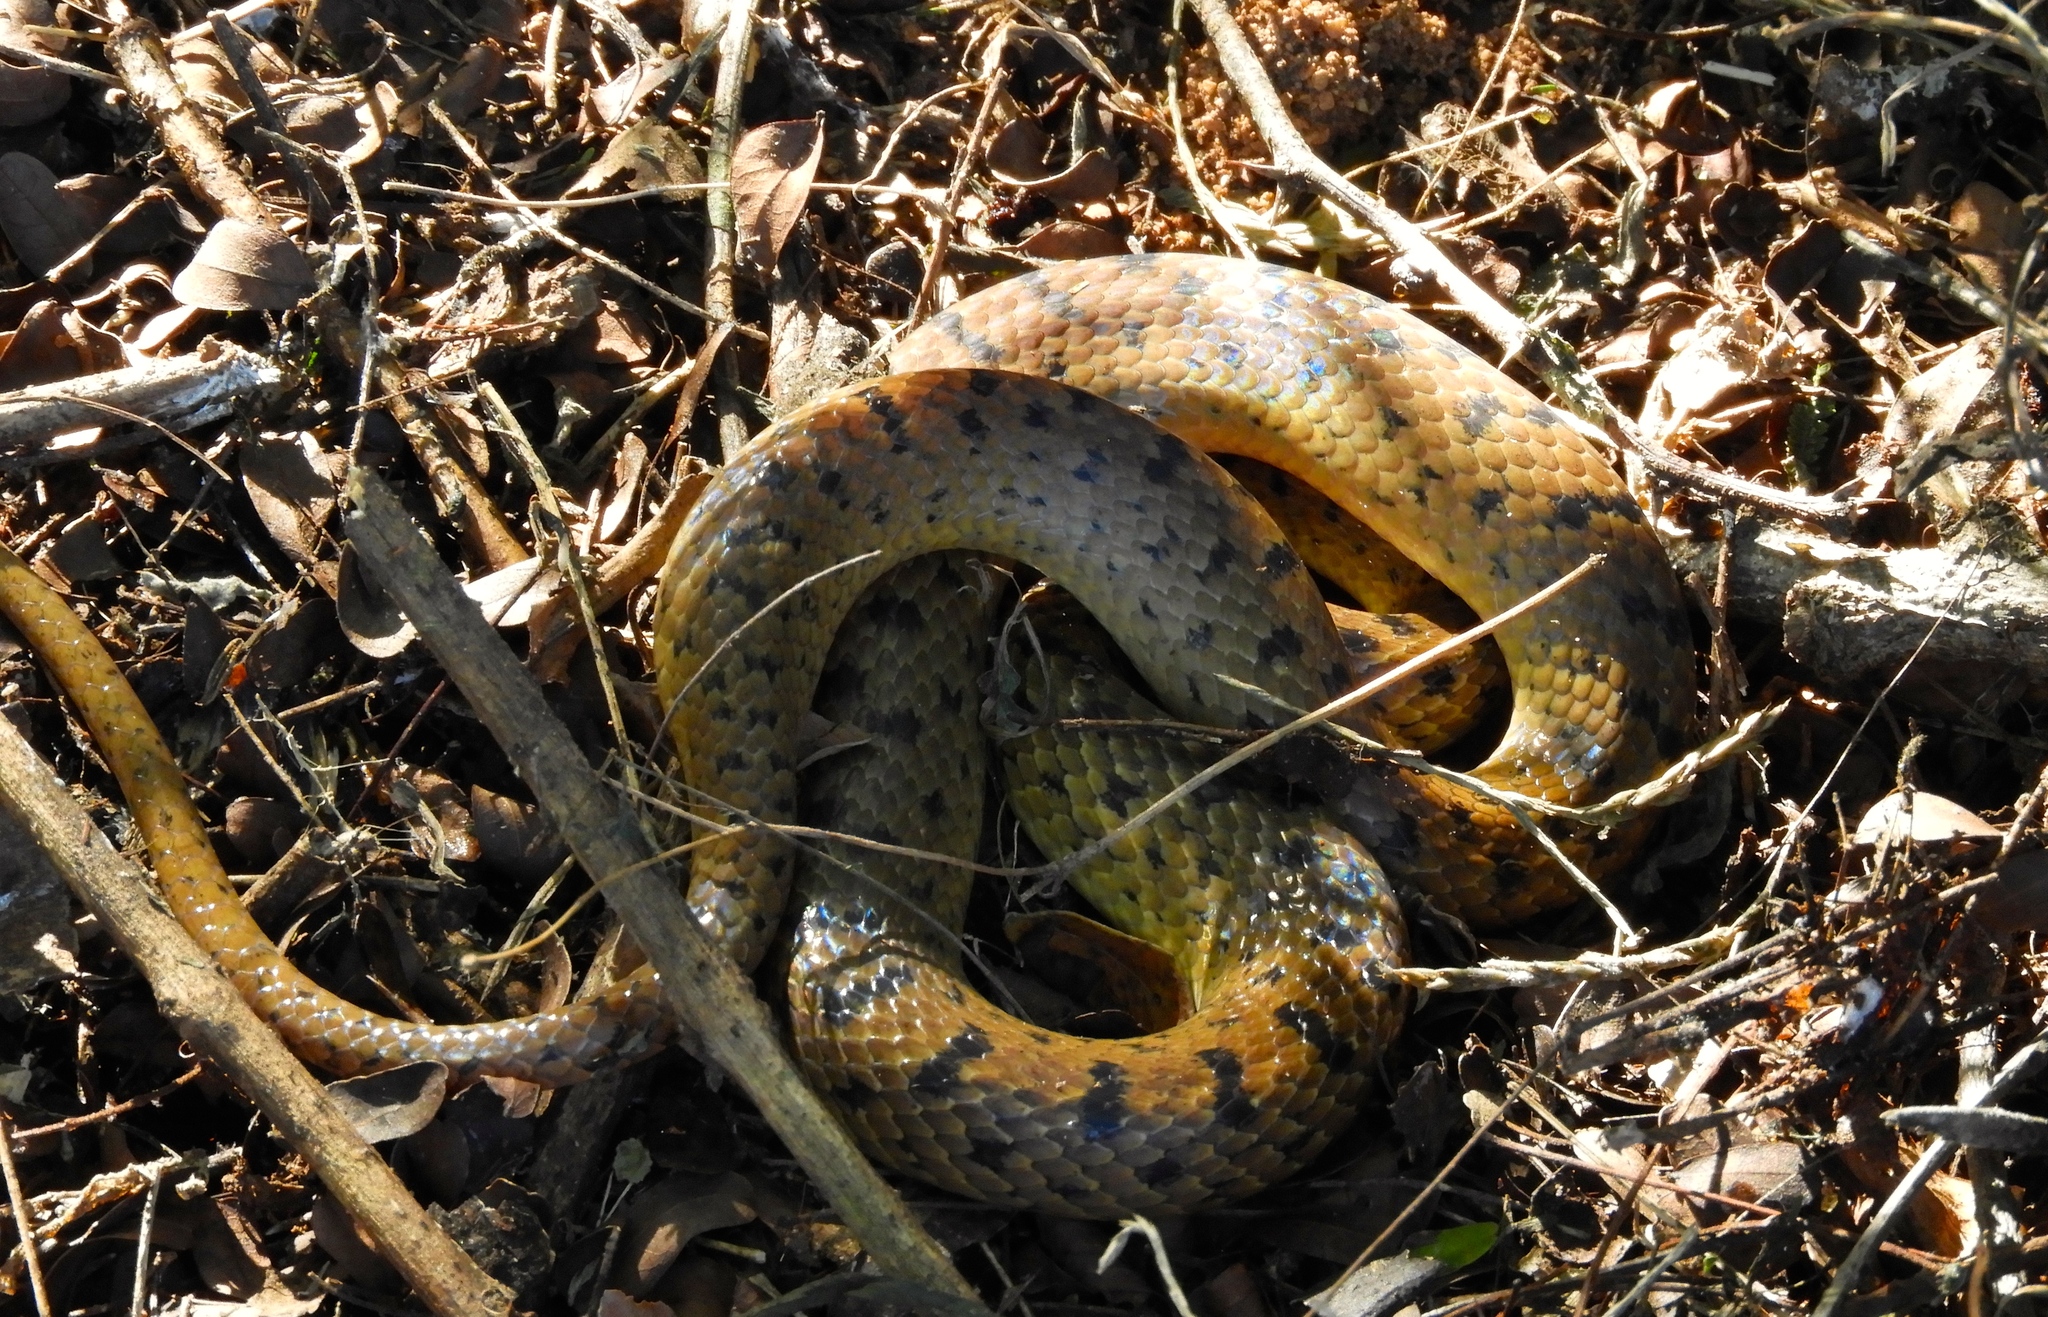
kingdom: Animalia
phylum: Chordata
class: Squamata
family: Colubridae
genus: Leptodeira
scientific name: Leptodeira punctata
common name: Western cat-eyed snake
